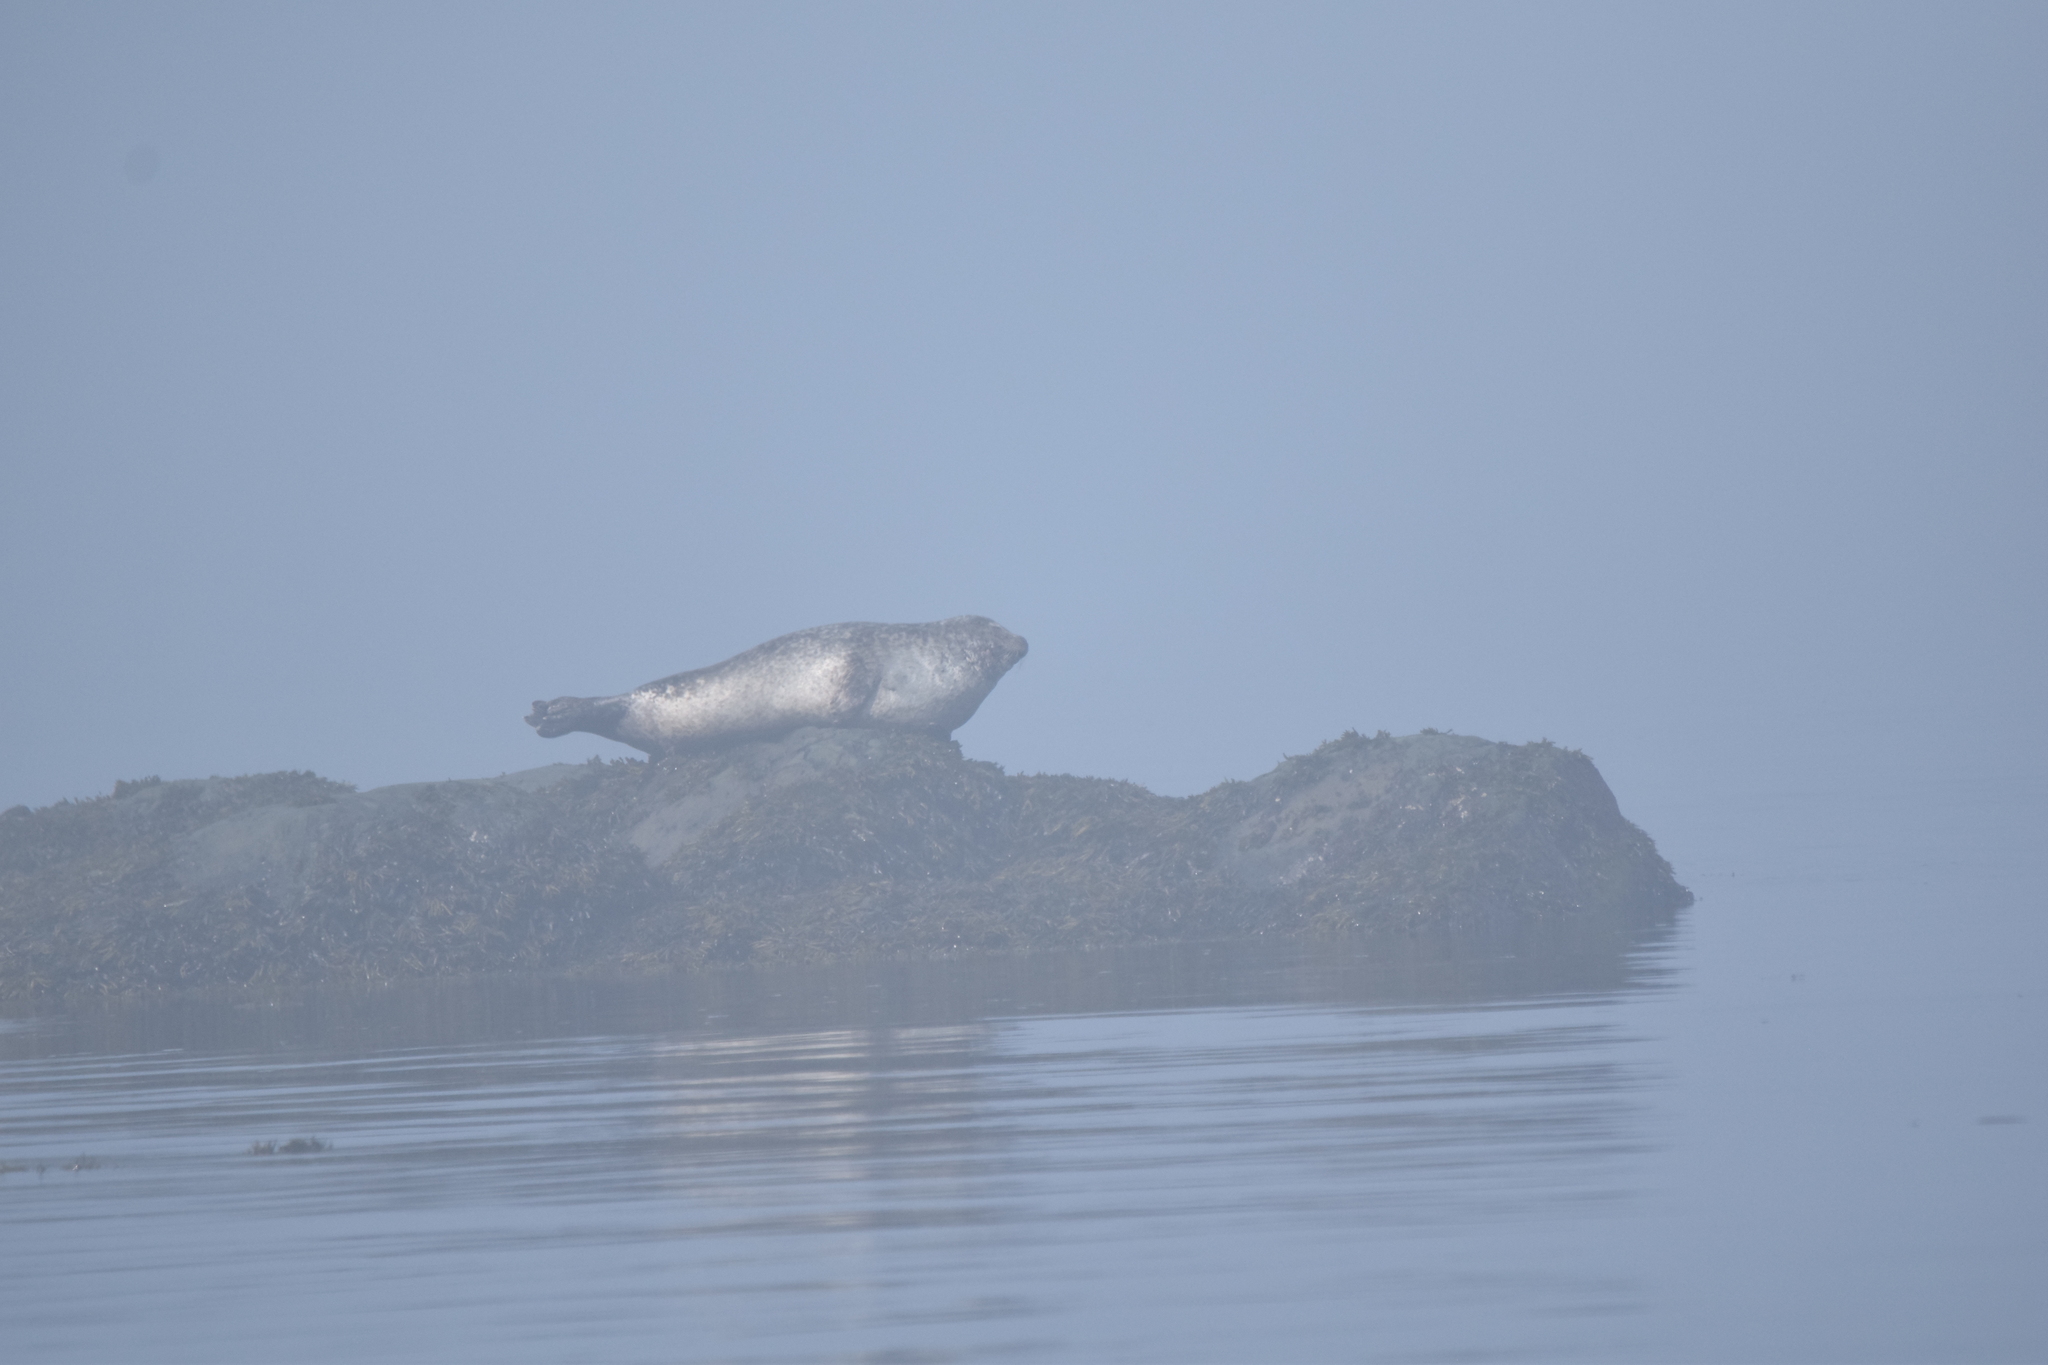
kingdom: Animalia
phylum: Chordata
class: Mammalia
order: Carnivora
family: Phocidae
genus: Phoca
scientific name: Phoca vitulina
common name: Harbor seal
